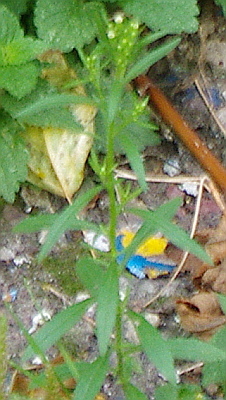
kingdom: Plantae
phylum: Tracheophyta
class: Magnoliopsida
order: Asterales
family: Asteraceae
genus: Erigeron
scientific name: Erigeron canadensis
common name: Canadian fleabane
